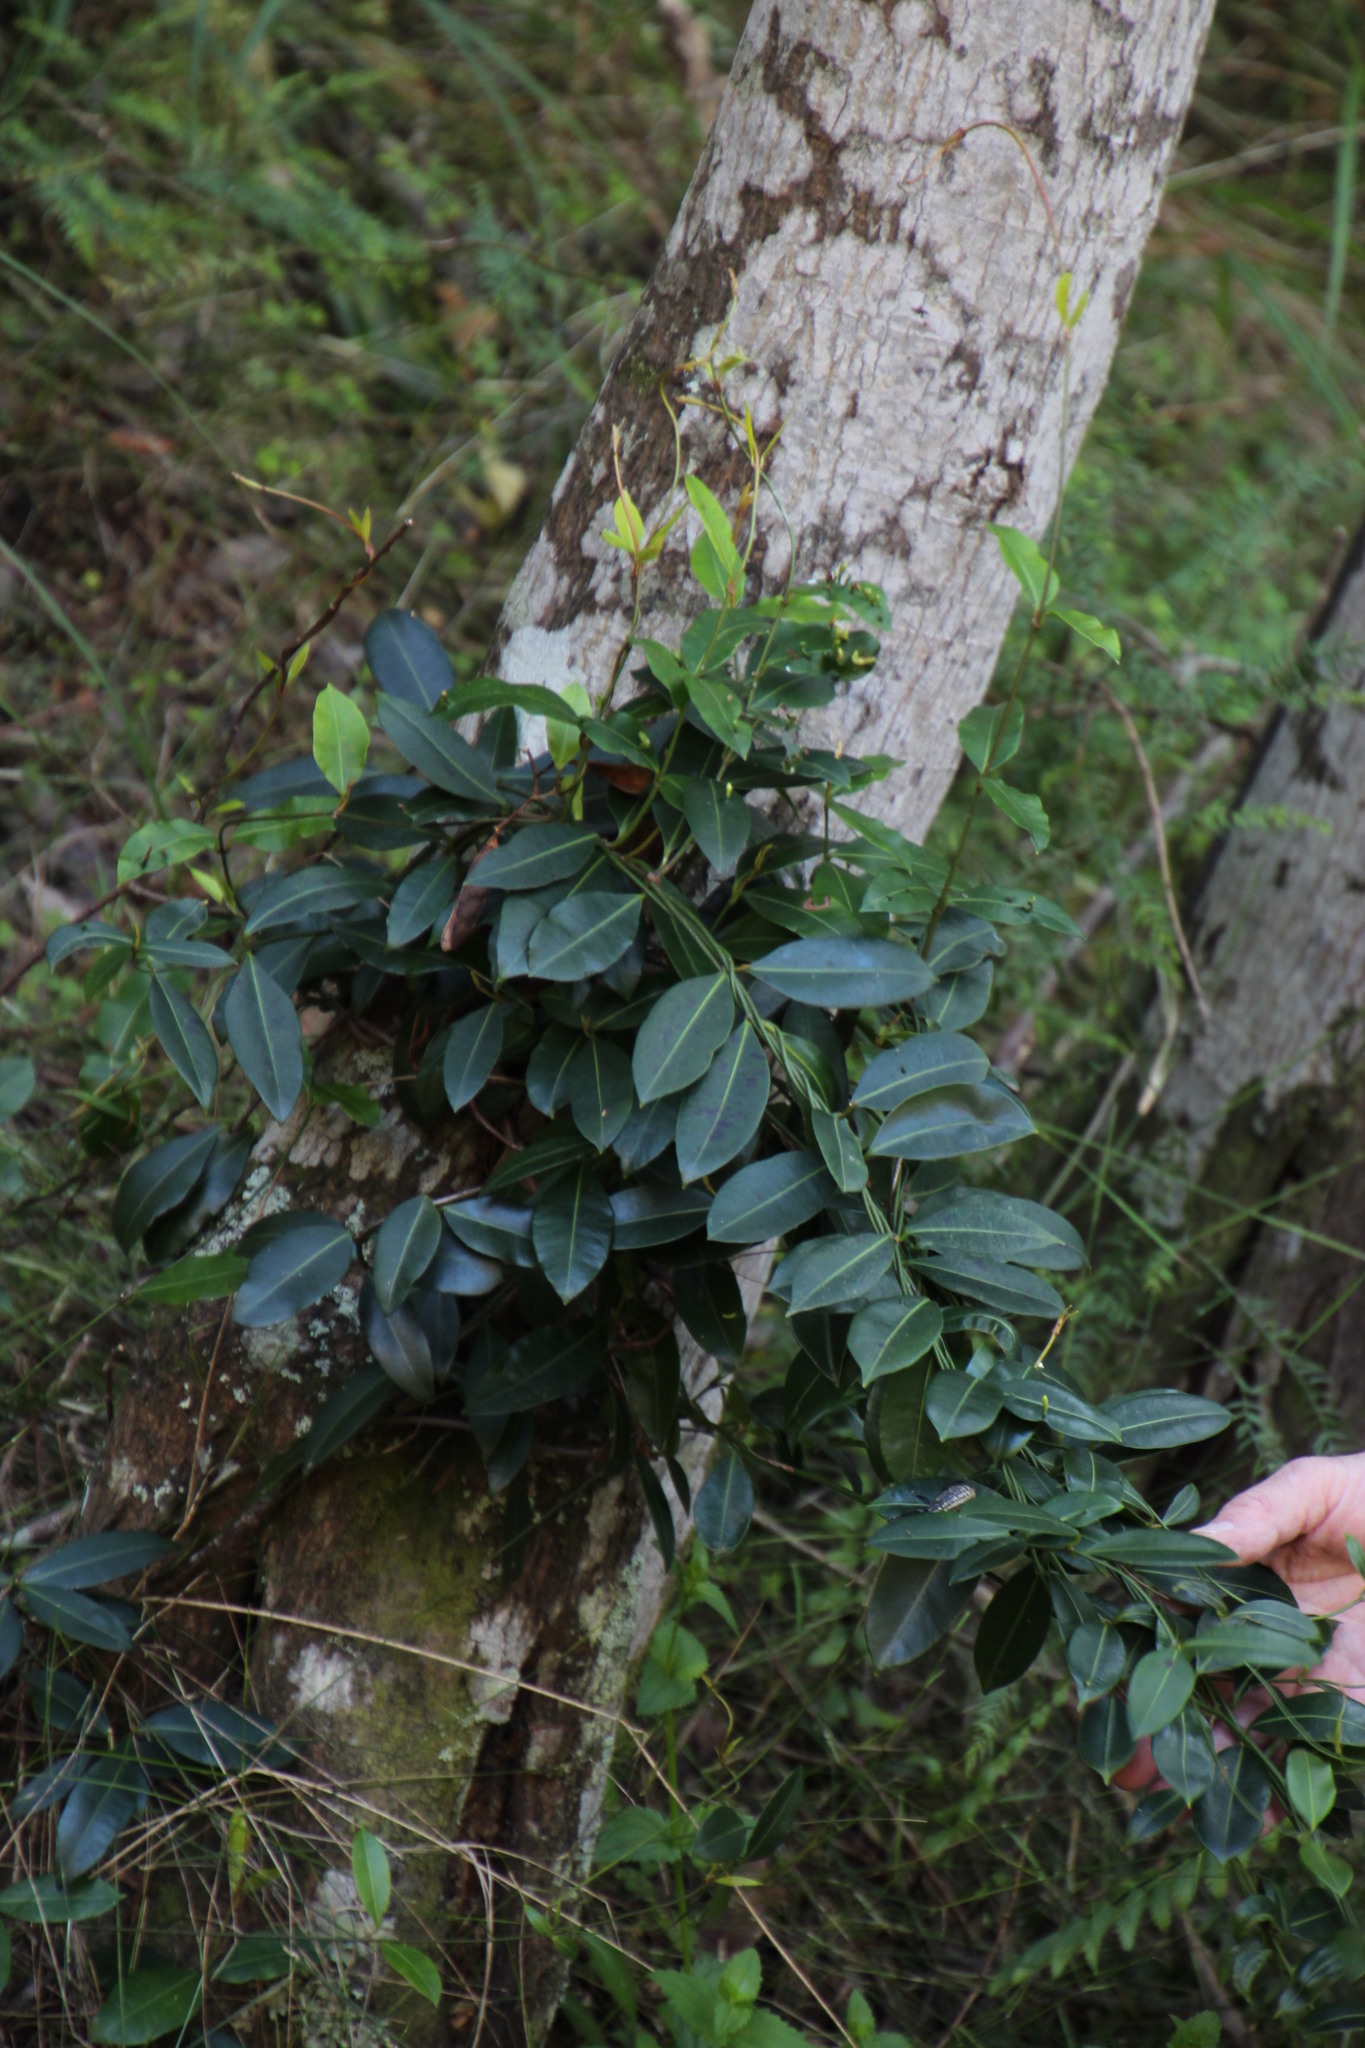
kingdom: Plantae
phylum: Tracheophyta
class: Magnoliopsida
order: Gentianales
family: Apocynaceae
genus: Secamone
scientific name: Secamone alpini
